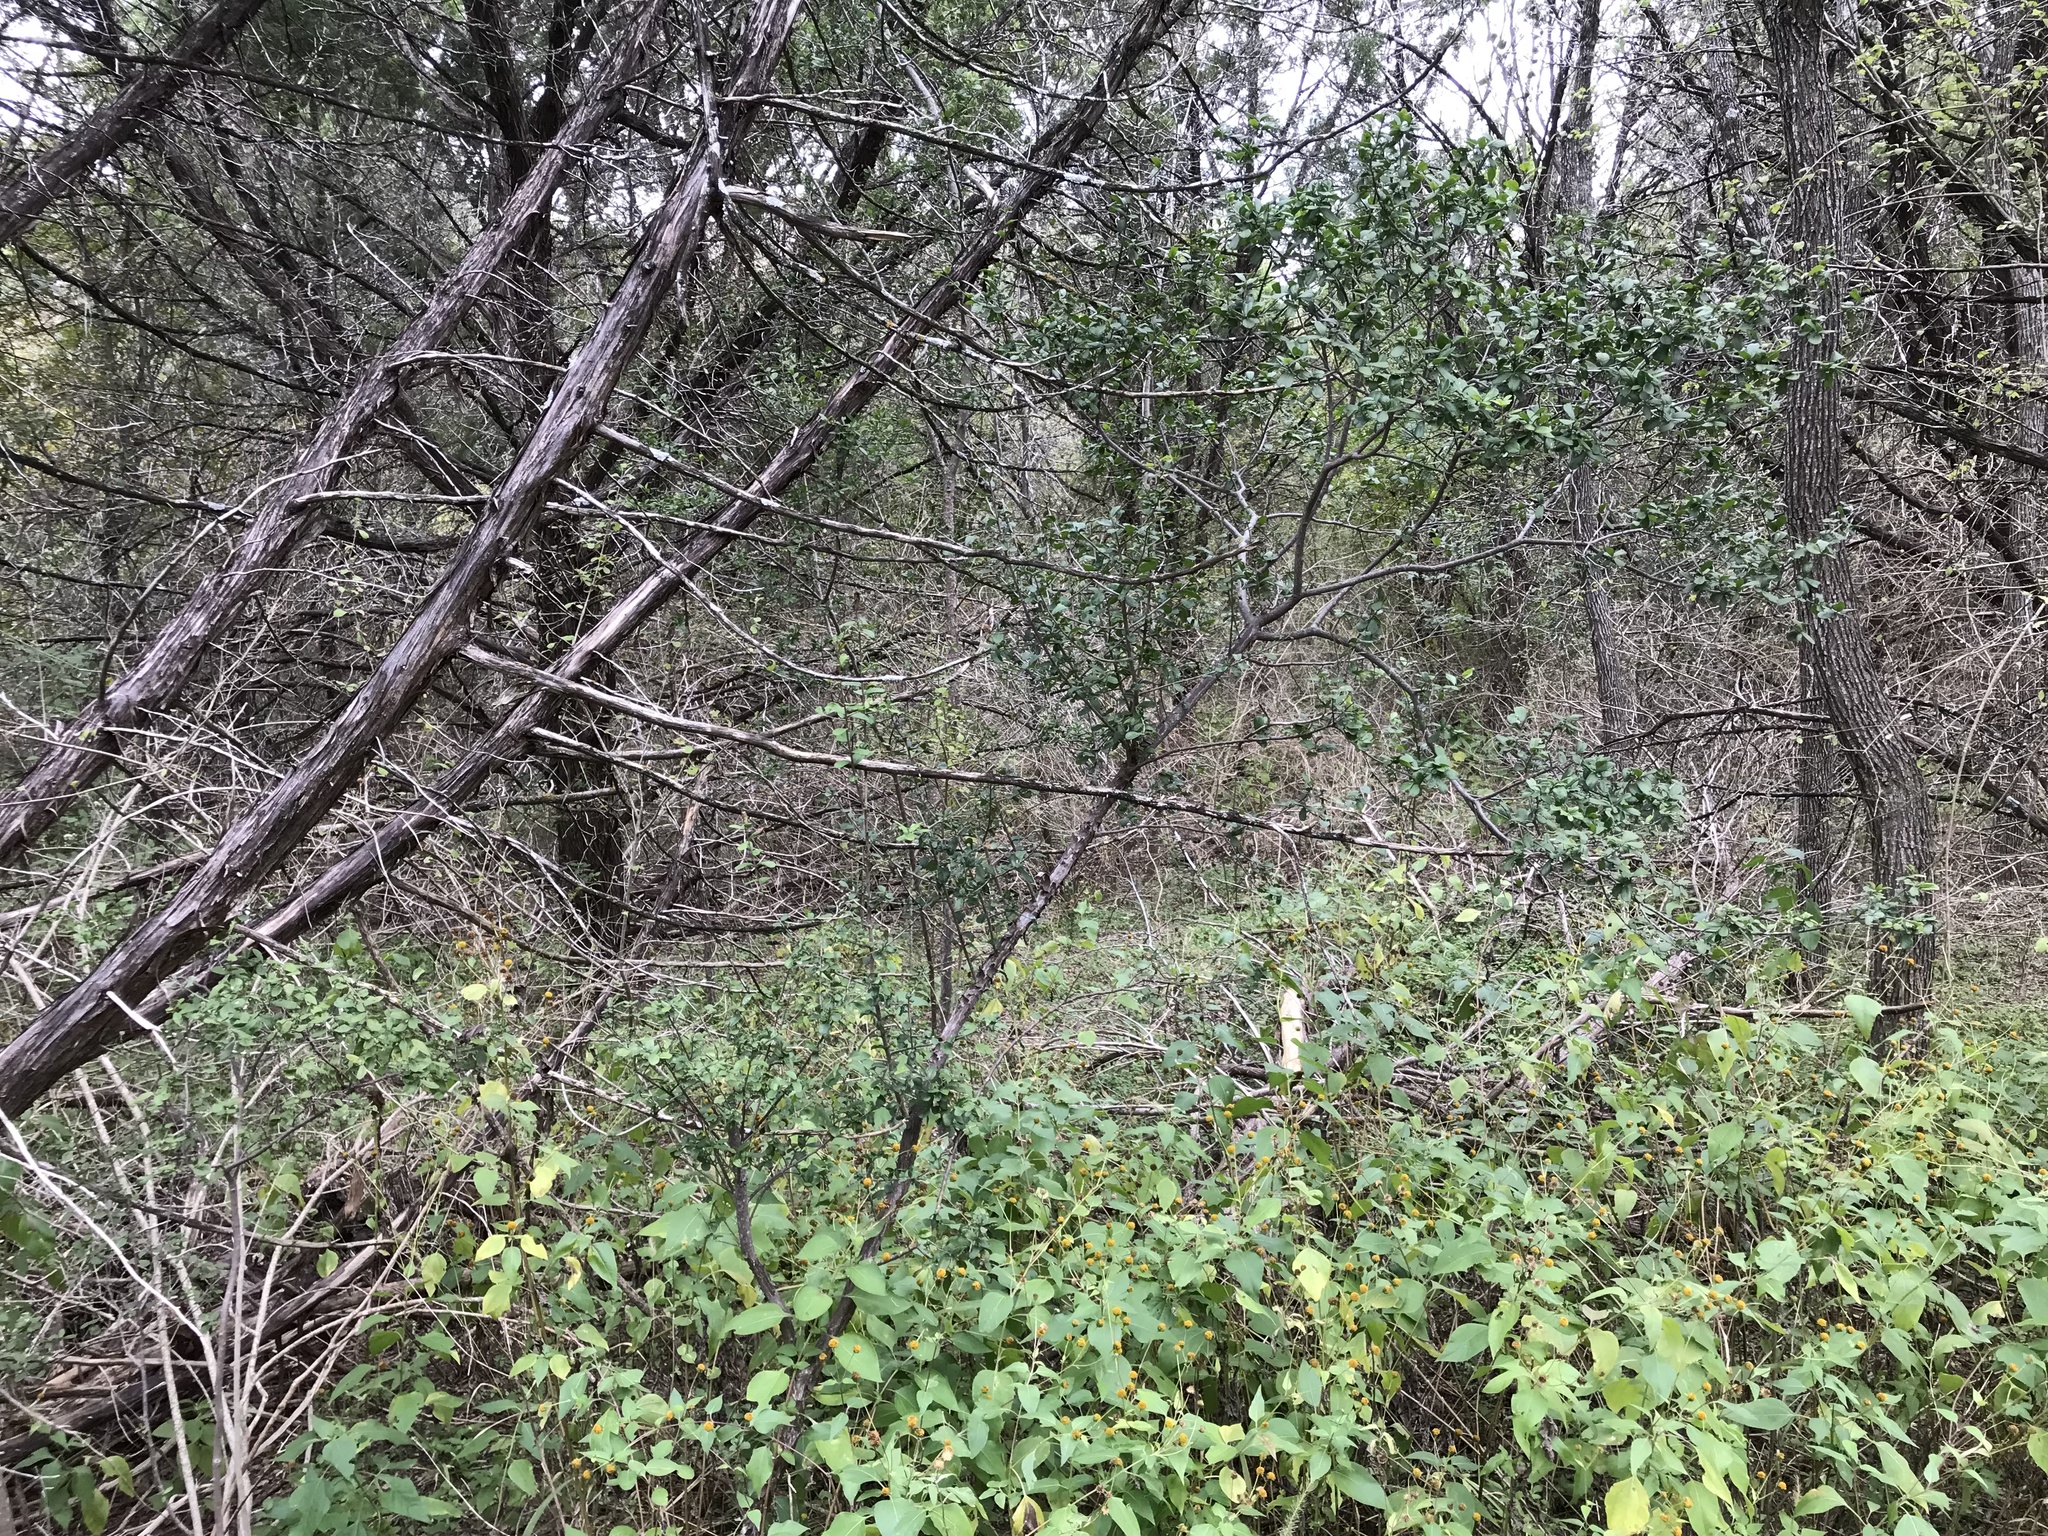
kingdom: Plantae
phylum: Tracheophyta
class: Magnoliopsida
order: Asterales
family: Asteraceae
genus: Viguiera
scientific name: Viguiera dentata
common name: Toothleaf
